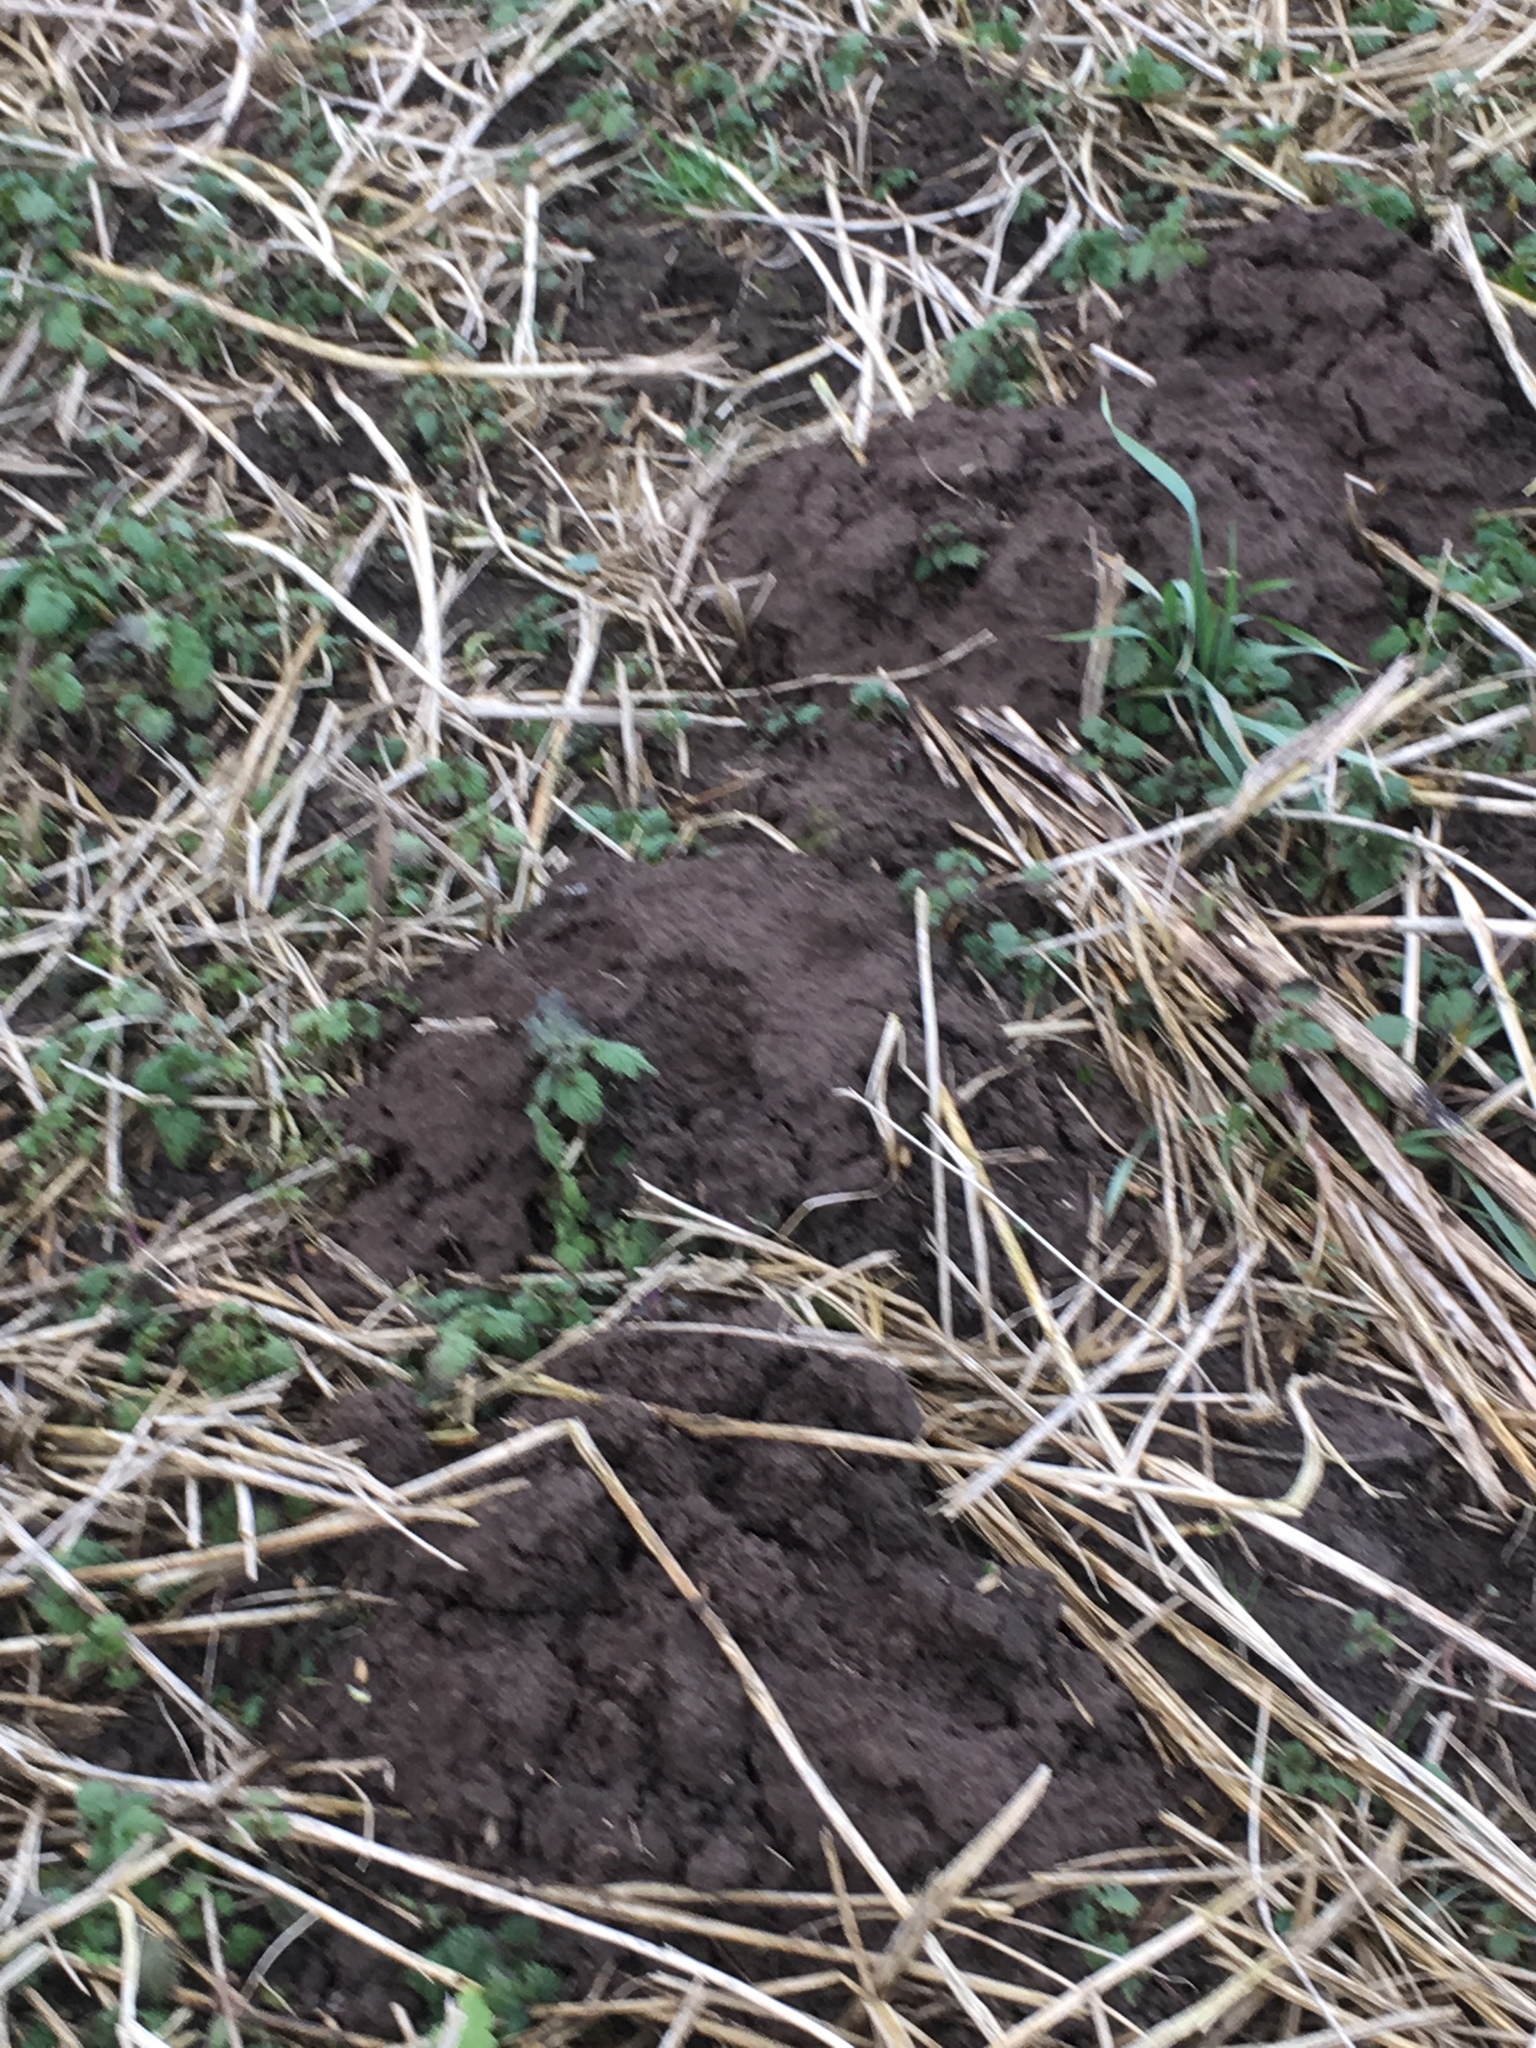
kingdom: Animalia
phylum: Chordata
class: Mammalia
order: Soricomorpha
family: Talpidae
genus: Talpa
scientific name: Talpa europaea
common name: European mole
